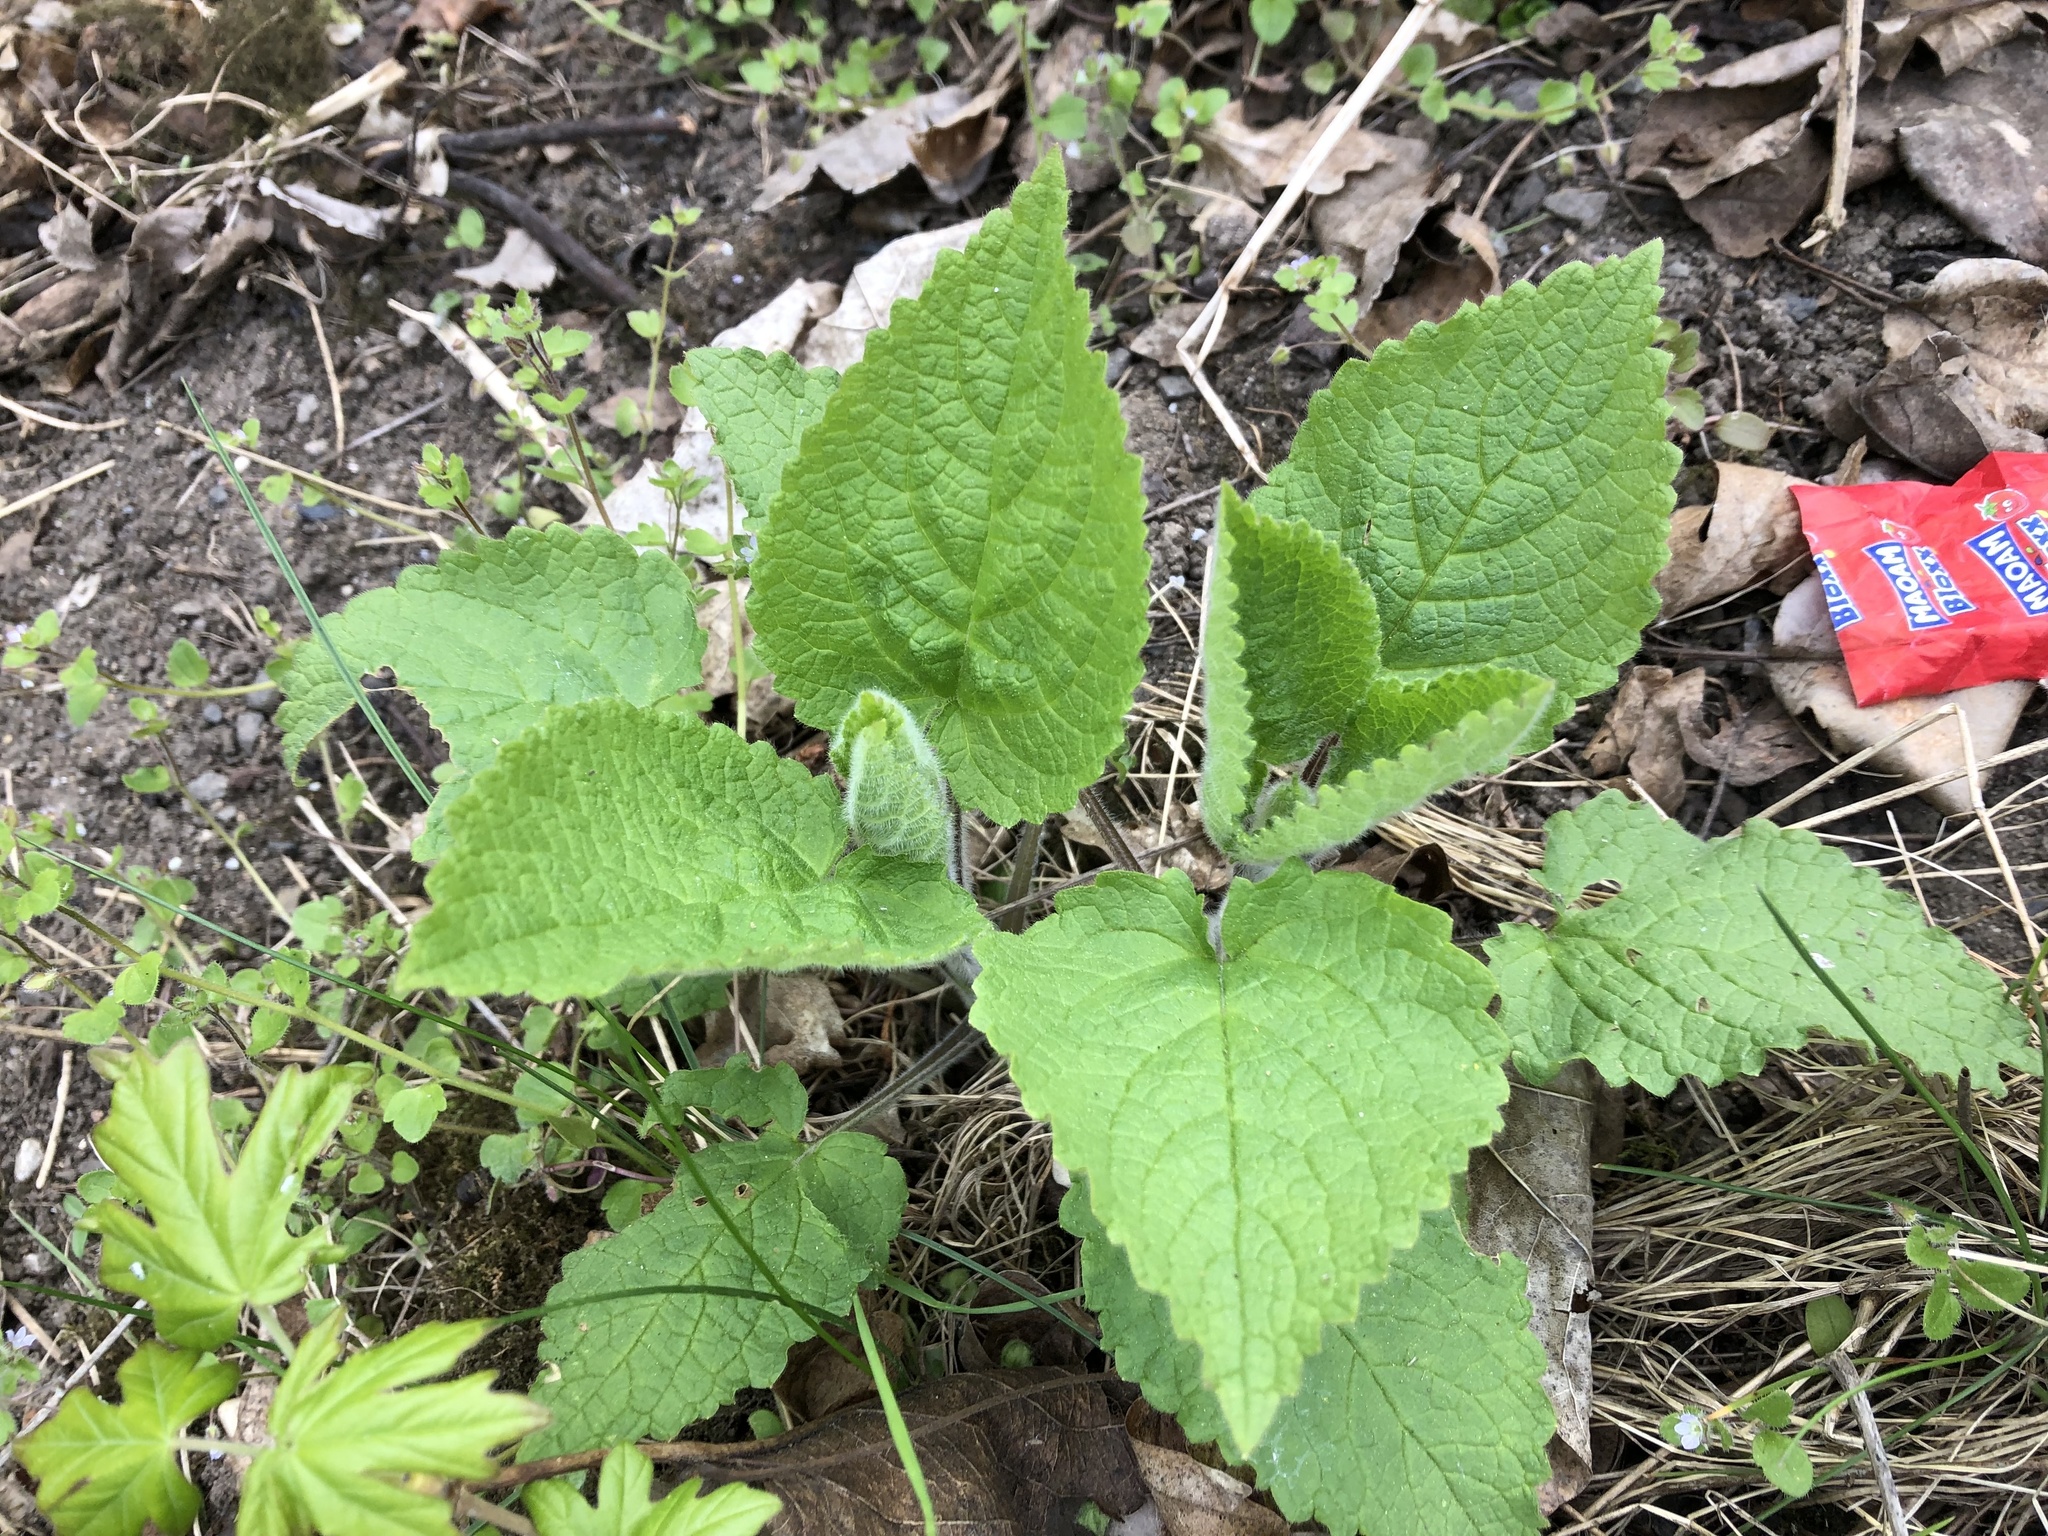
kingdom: Plantae
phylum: Tracheophyta
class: Magnoliopsida
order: Lamiales
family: Lamiaceae
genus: Stachys
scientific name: Stachys sylvatica
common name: Hedge woundwort
